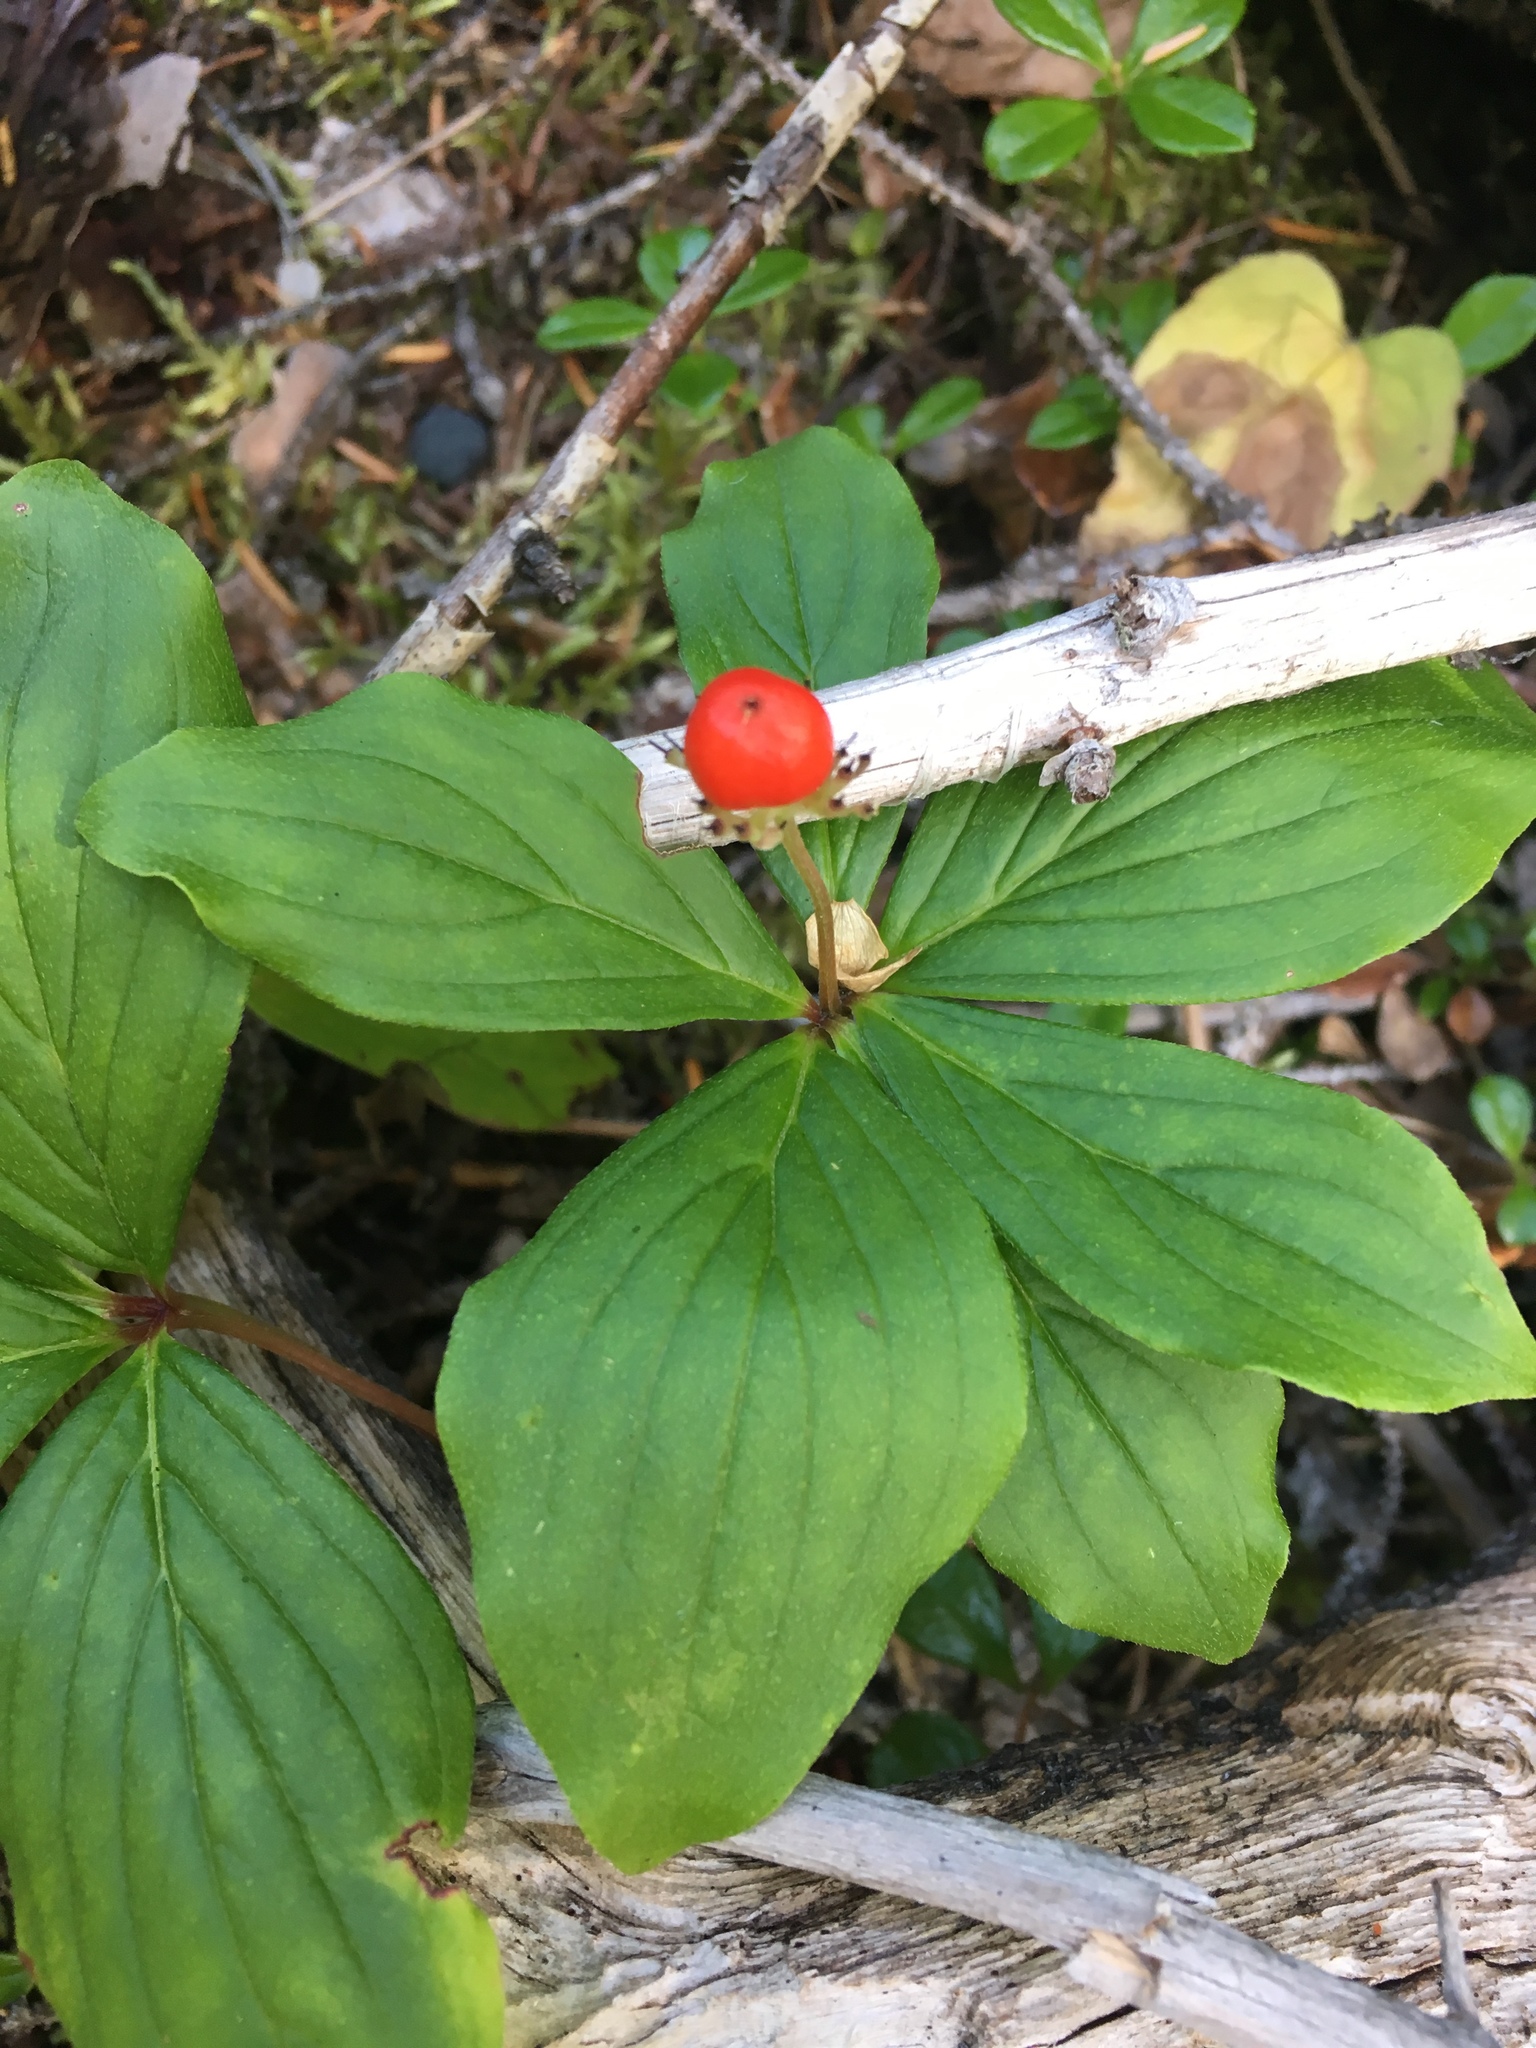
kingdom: Plantae
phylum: Tracheophyta
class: Magnoliopsida
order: Cornales
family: Cornaceae
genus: Cornus
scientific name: Cornus canadensis
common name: Creeping dogwood
